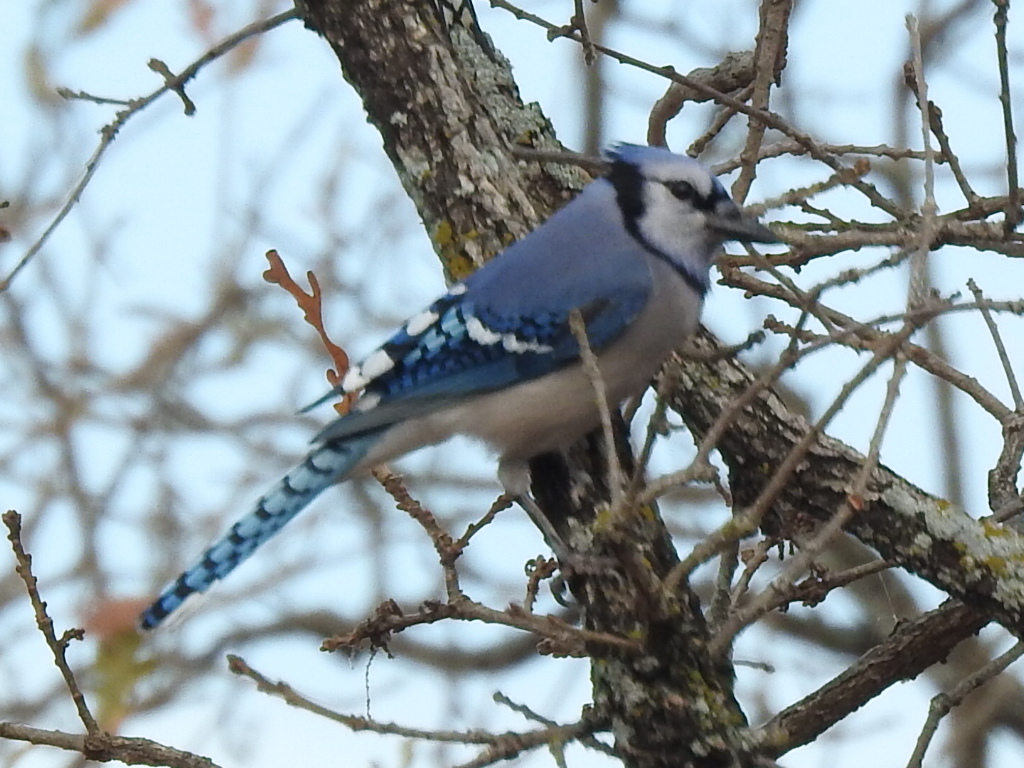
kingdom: Animalia
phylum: Chordata
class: Aves
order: Passeriformes
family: Corvidae
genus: Cyanocitta
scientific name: Cyanocitta cristata
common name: Blue jay
